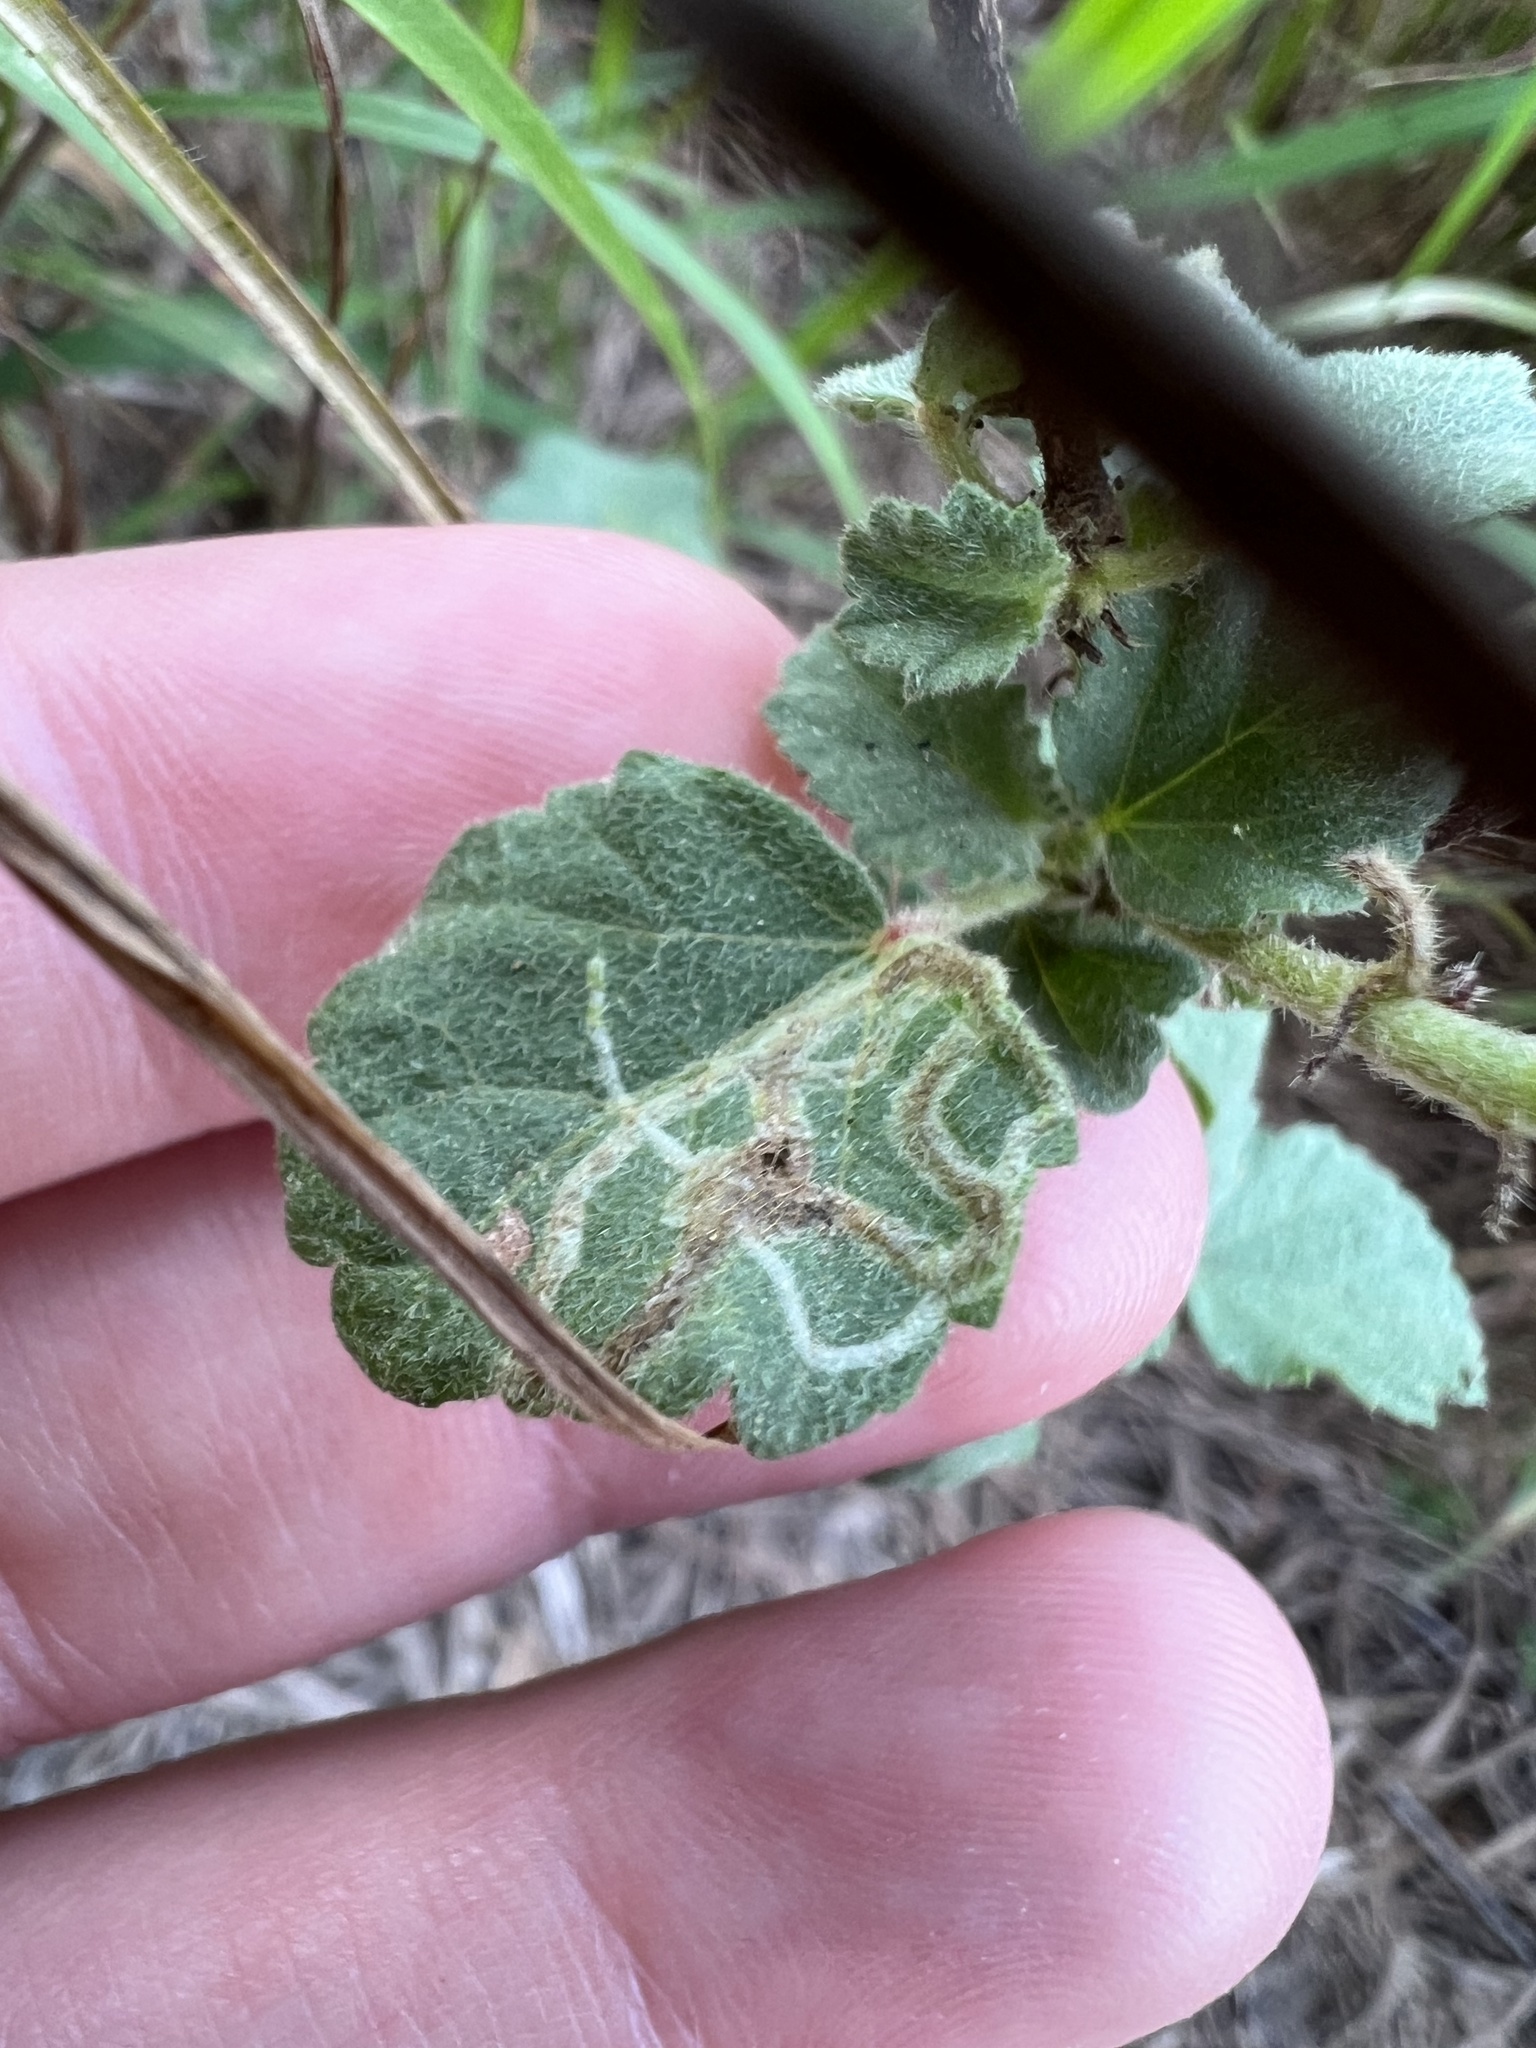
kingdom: Animalia
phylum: Arthropoda
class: Insecta
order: Diptera
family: Agromyzidae
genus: Calycomyza
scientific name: Calycomyza malvae
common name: Mallow leaf miner
